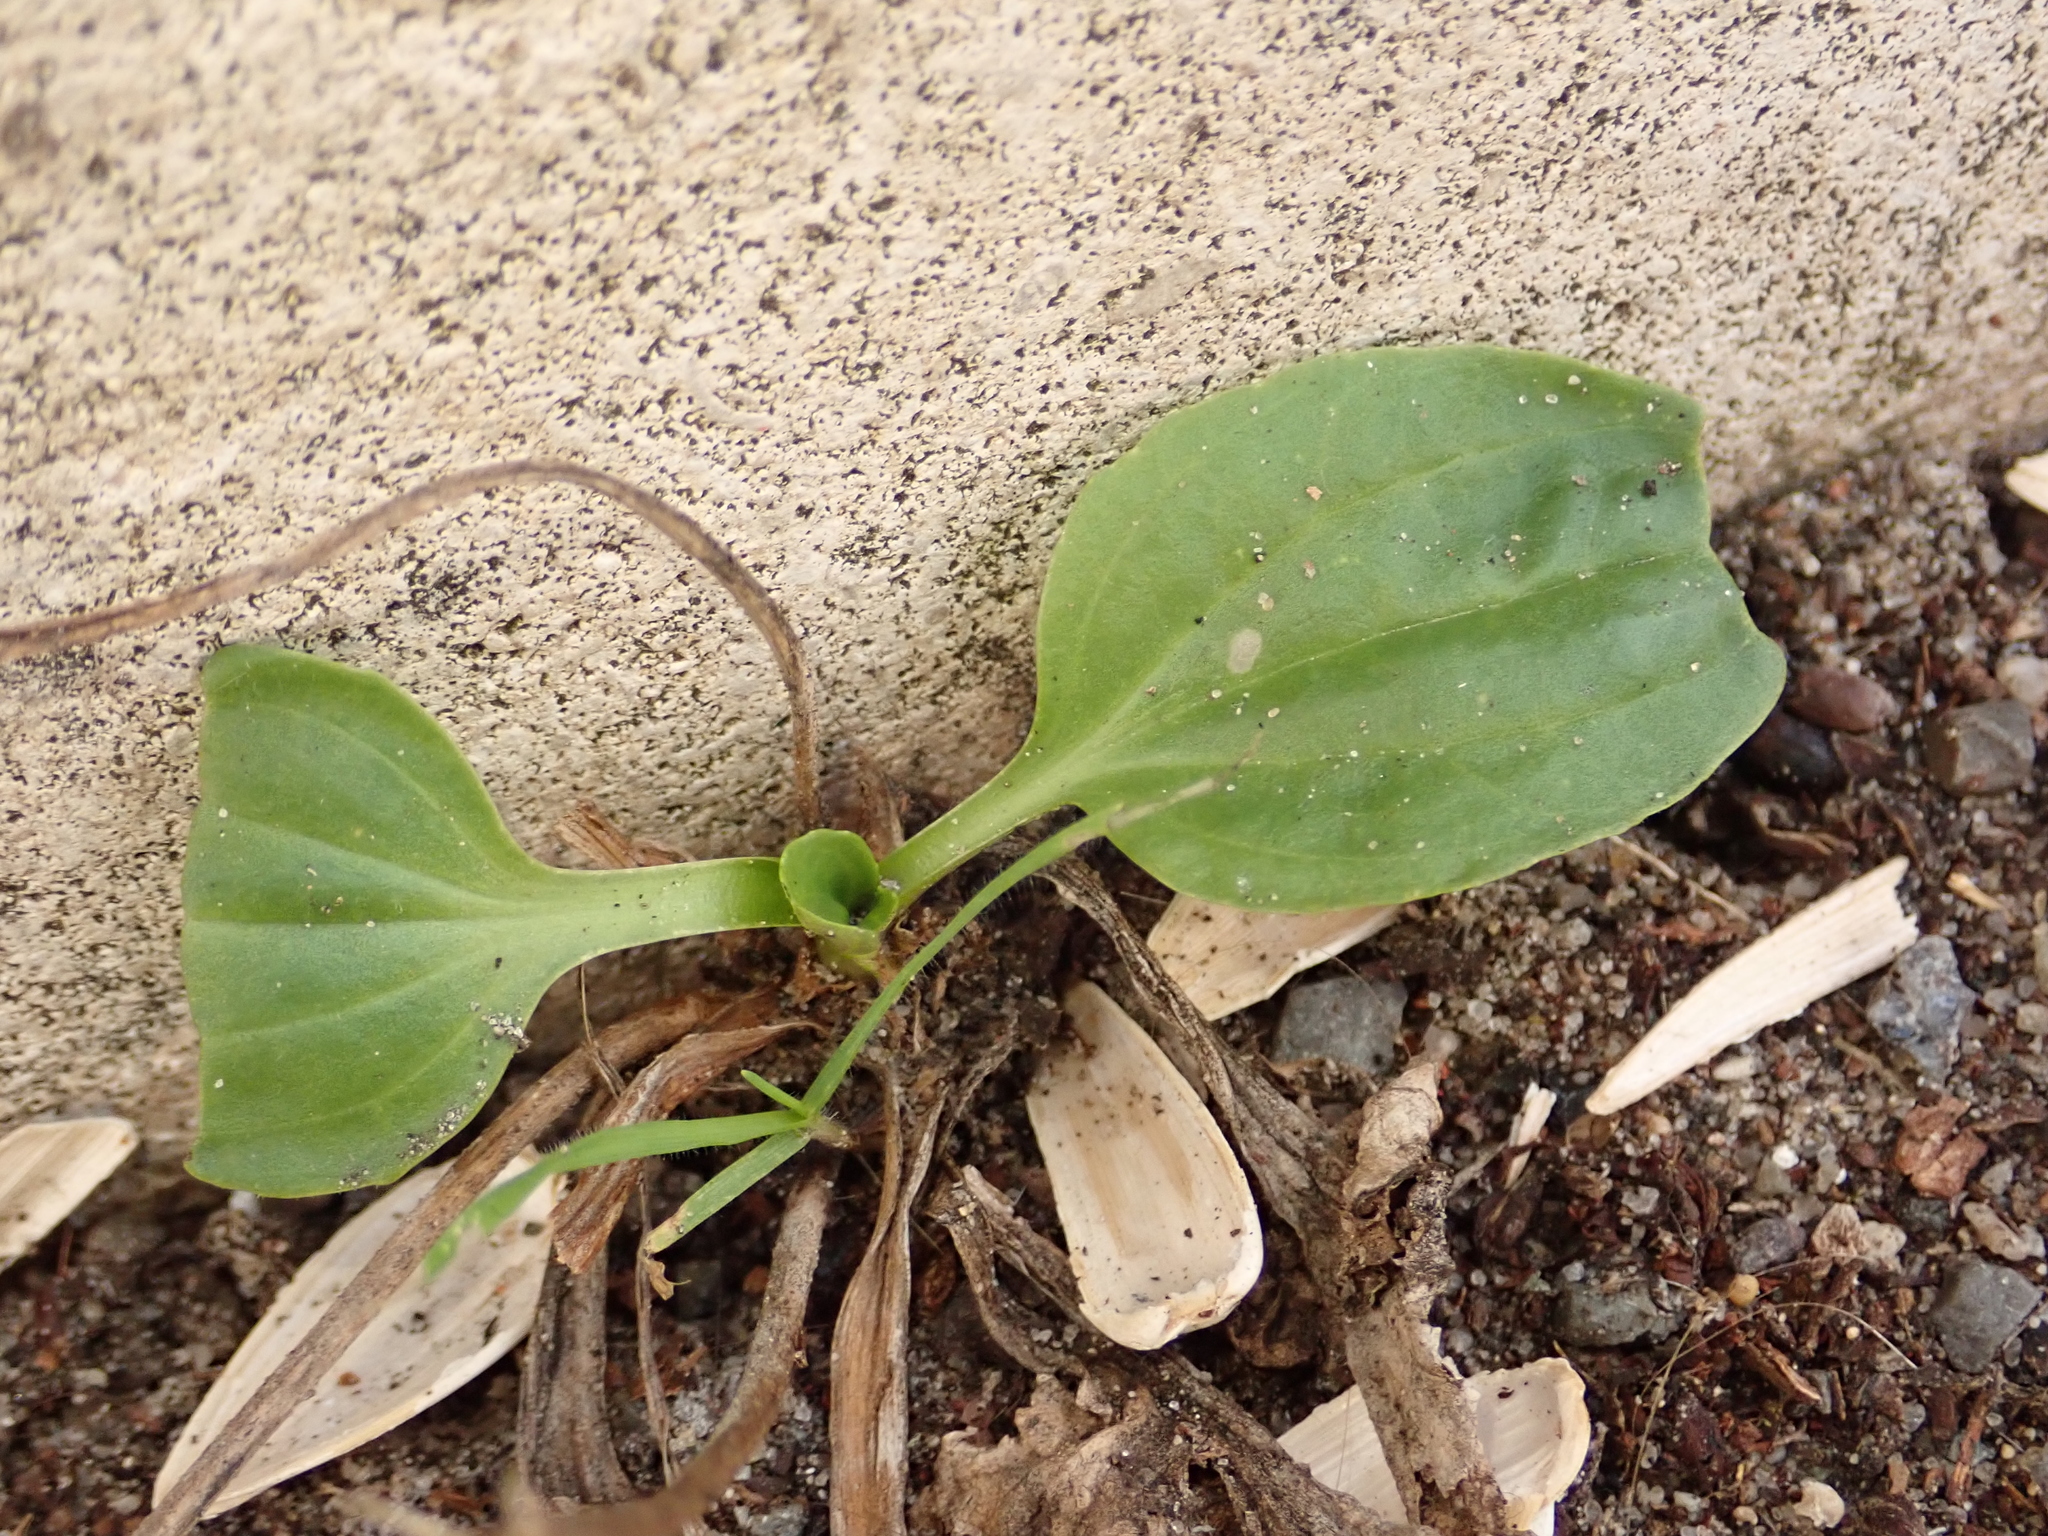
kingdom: Plantae
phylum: Tracheophyta
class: Magnoliopsida
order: Lamiales
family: Plantaginaceae
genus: Plantago
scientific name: Plantago major
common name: Common plantain
